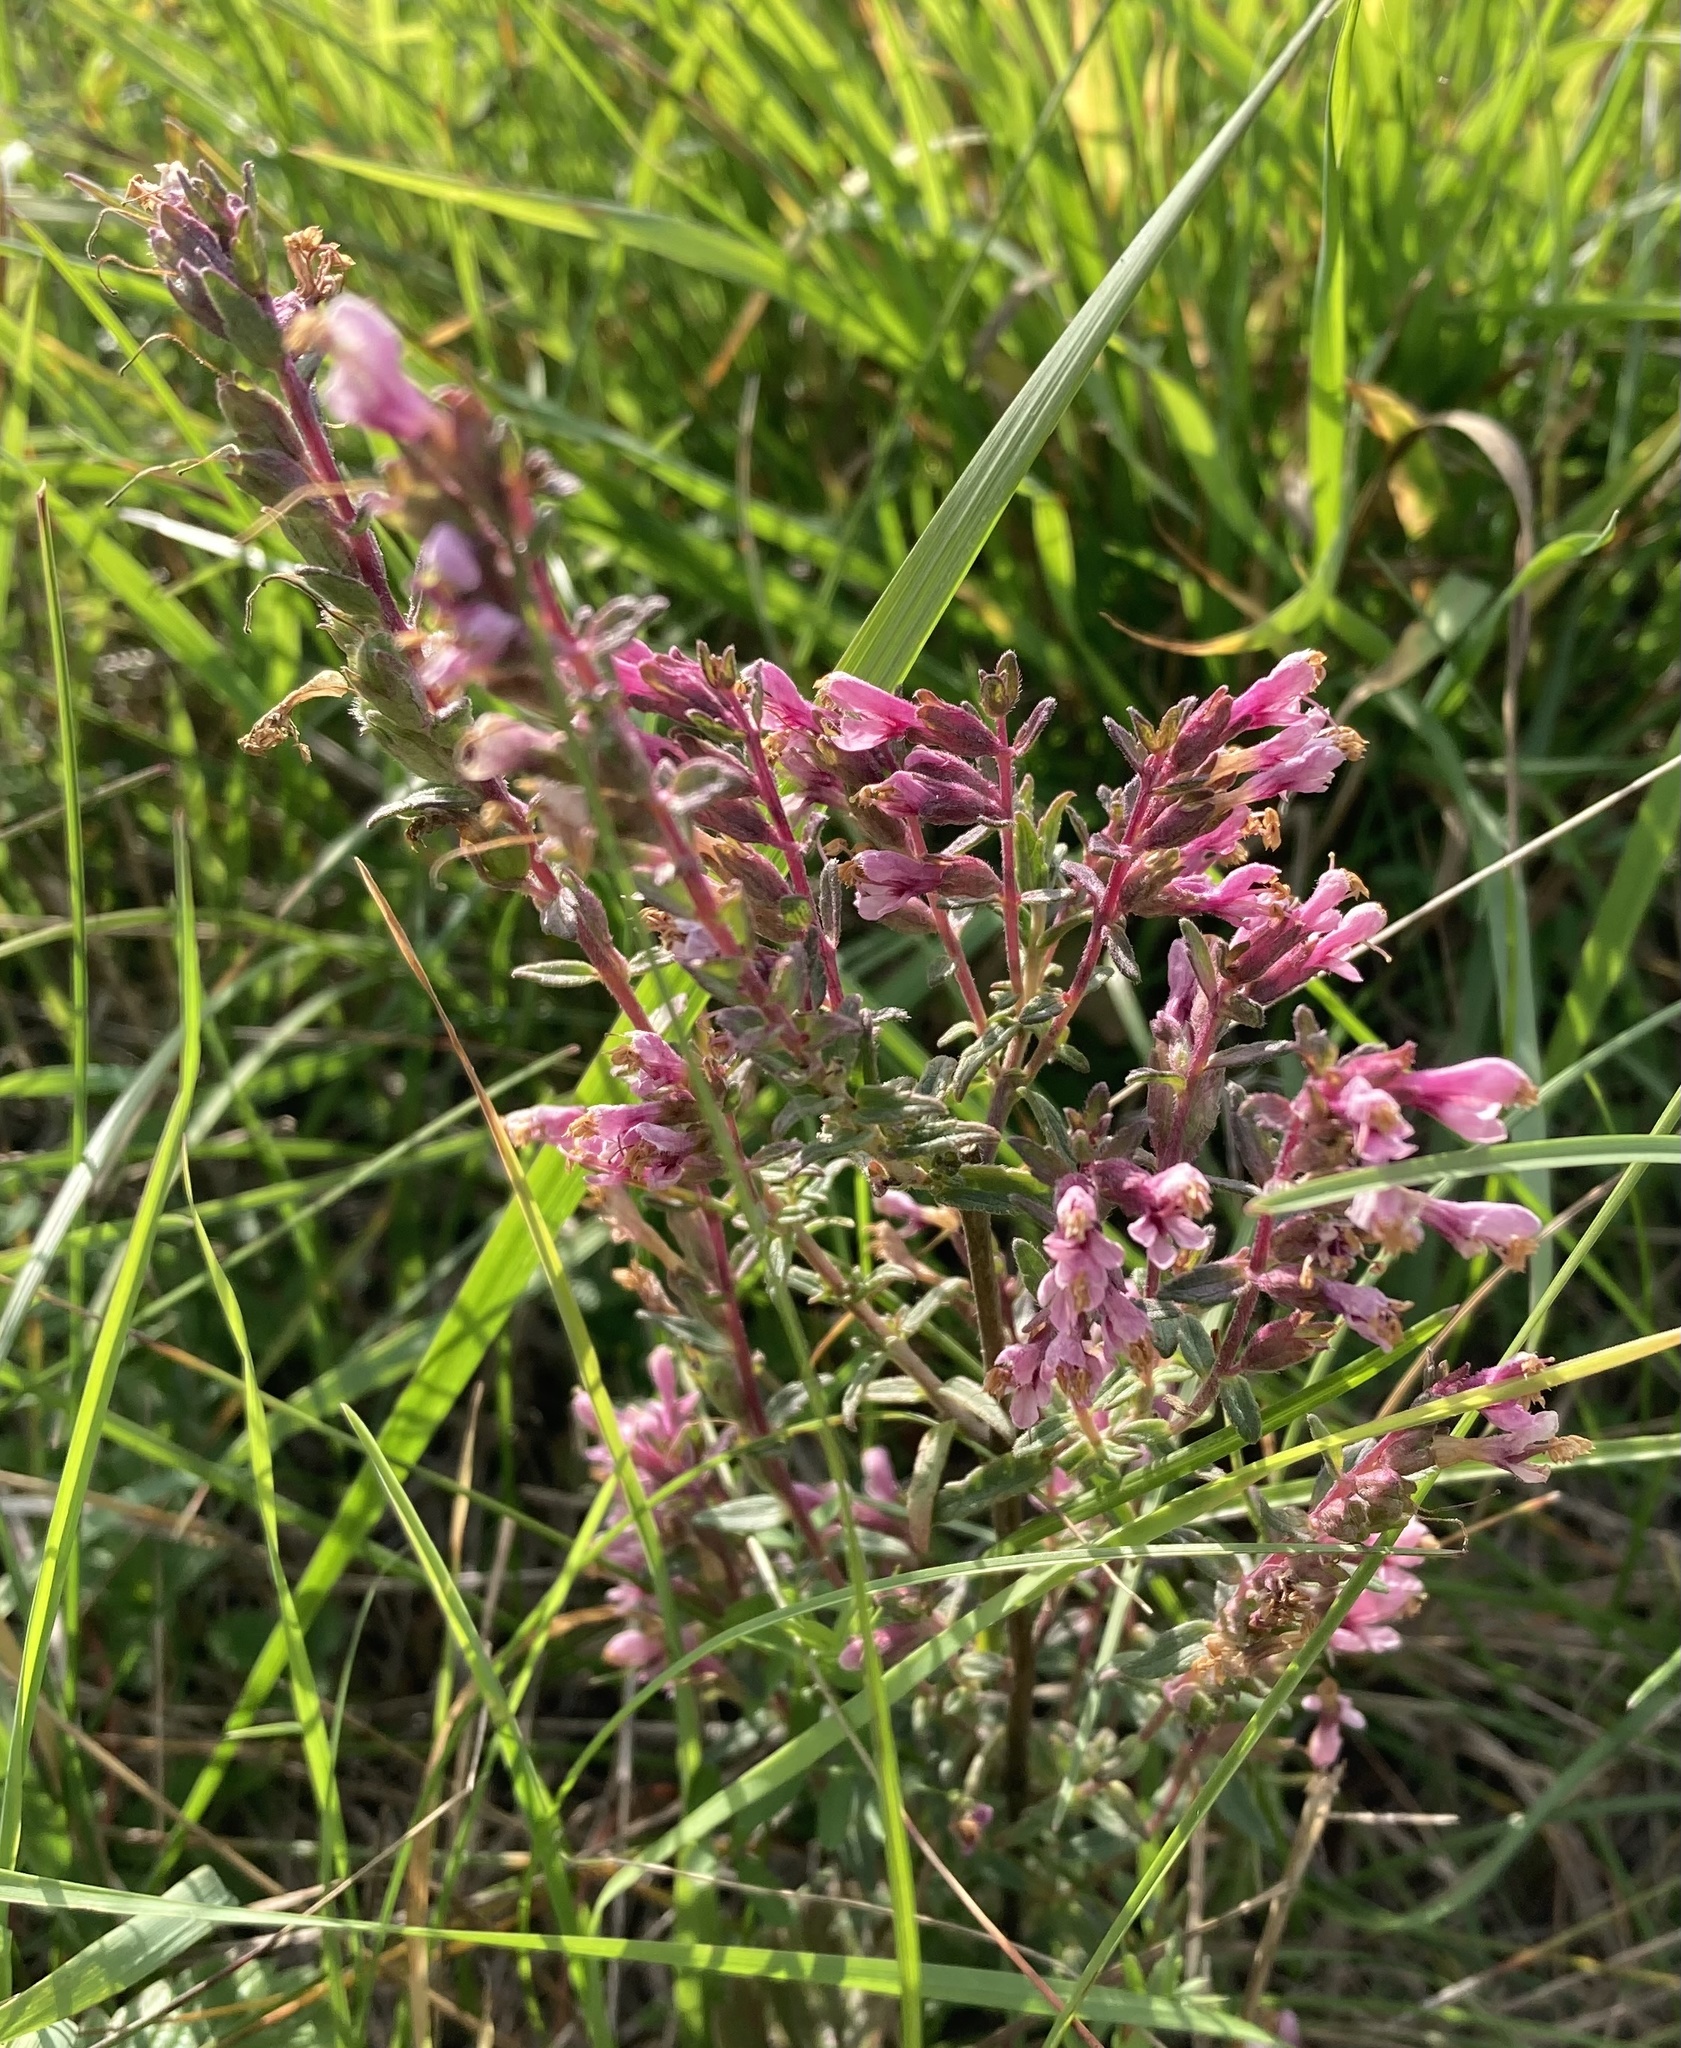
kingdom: Plantae
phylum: Tracheophyta
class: Magnoliopsida
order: Lamiales
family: Orobanchaceae
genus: Odontites
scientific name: Odontites vulgaris
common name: Broomrape
